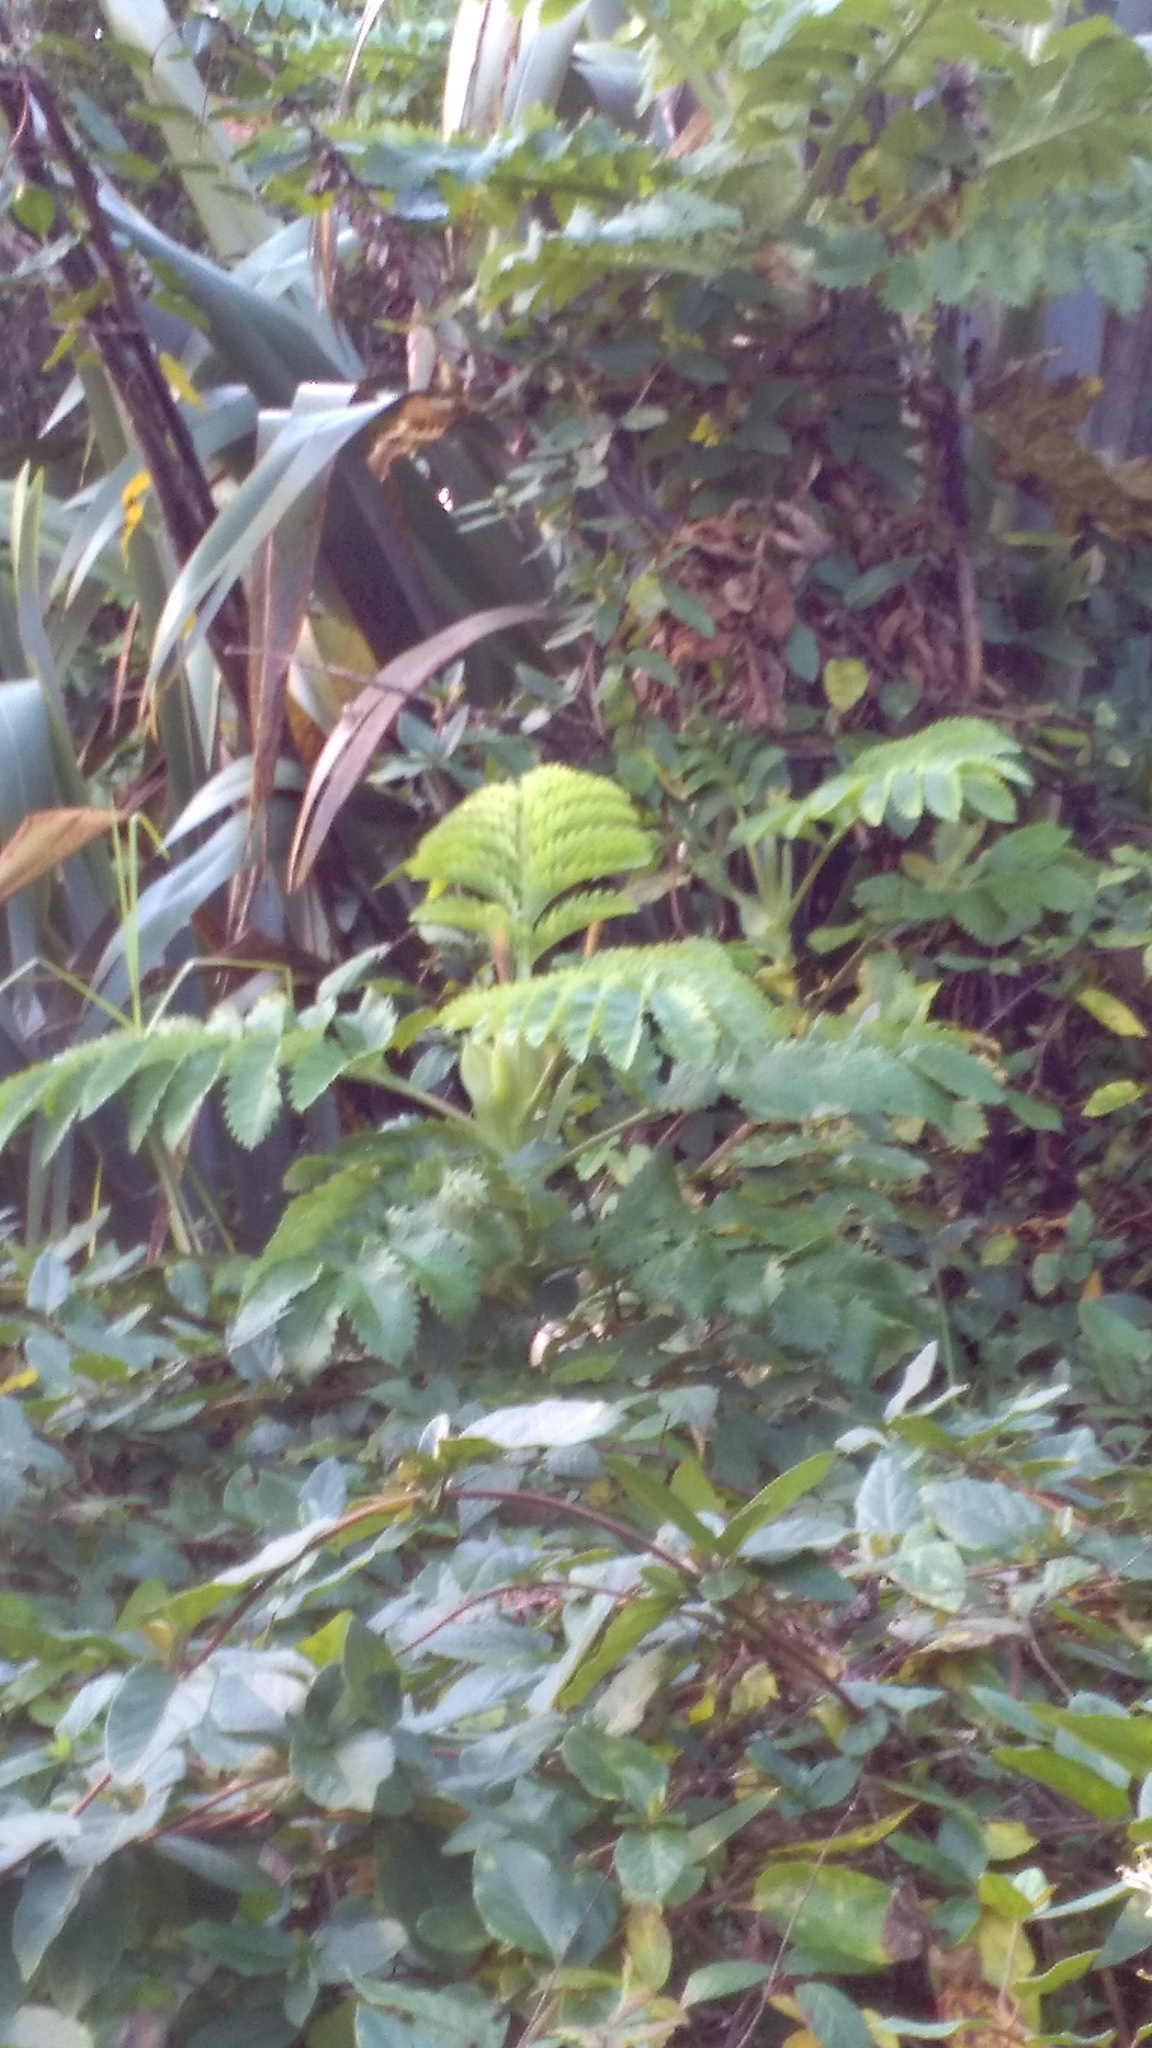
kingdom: Plantae
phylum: Tracheophyta
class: Magnoliopsida
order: Geraniales
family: Melianthaceae
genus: Melianthus
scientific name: Melianthus major
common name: Honey-flower
